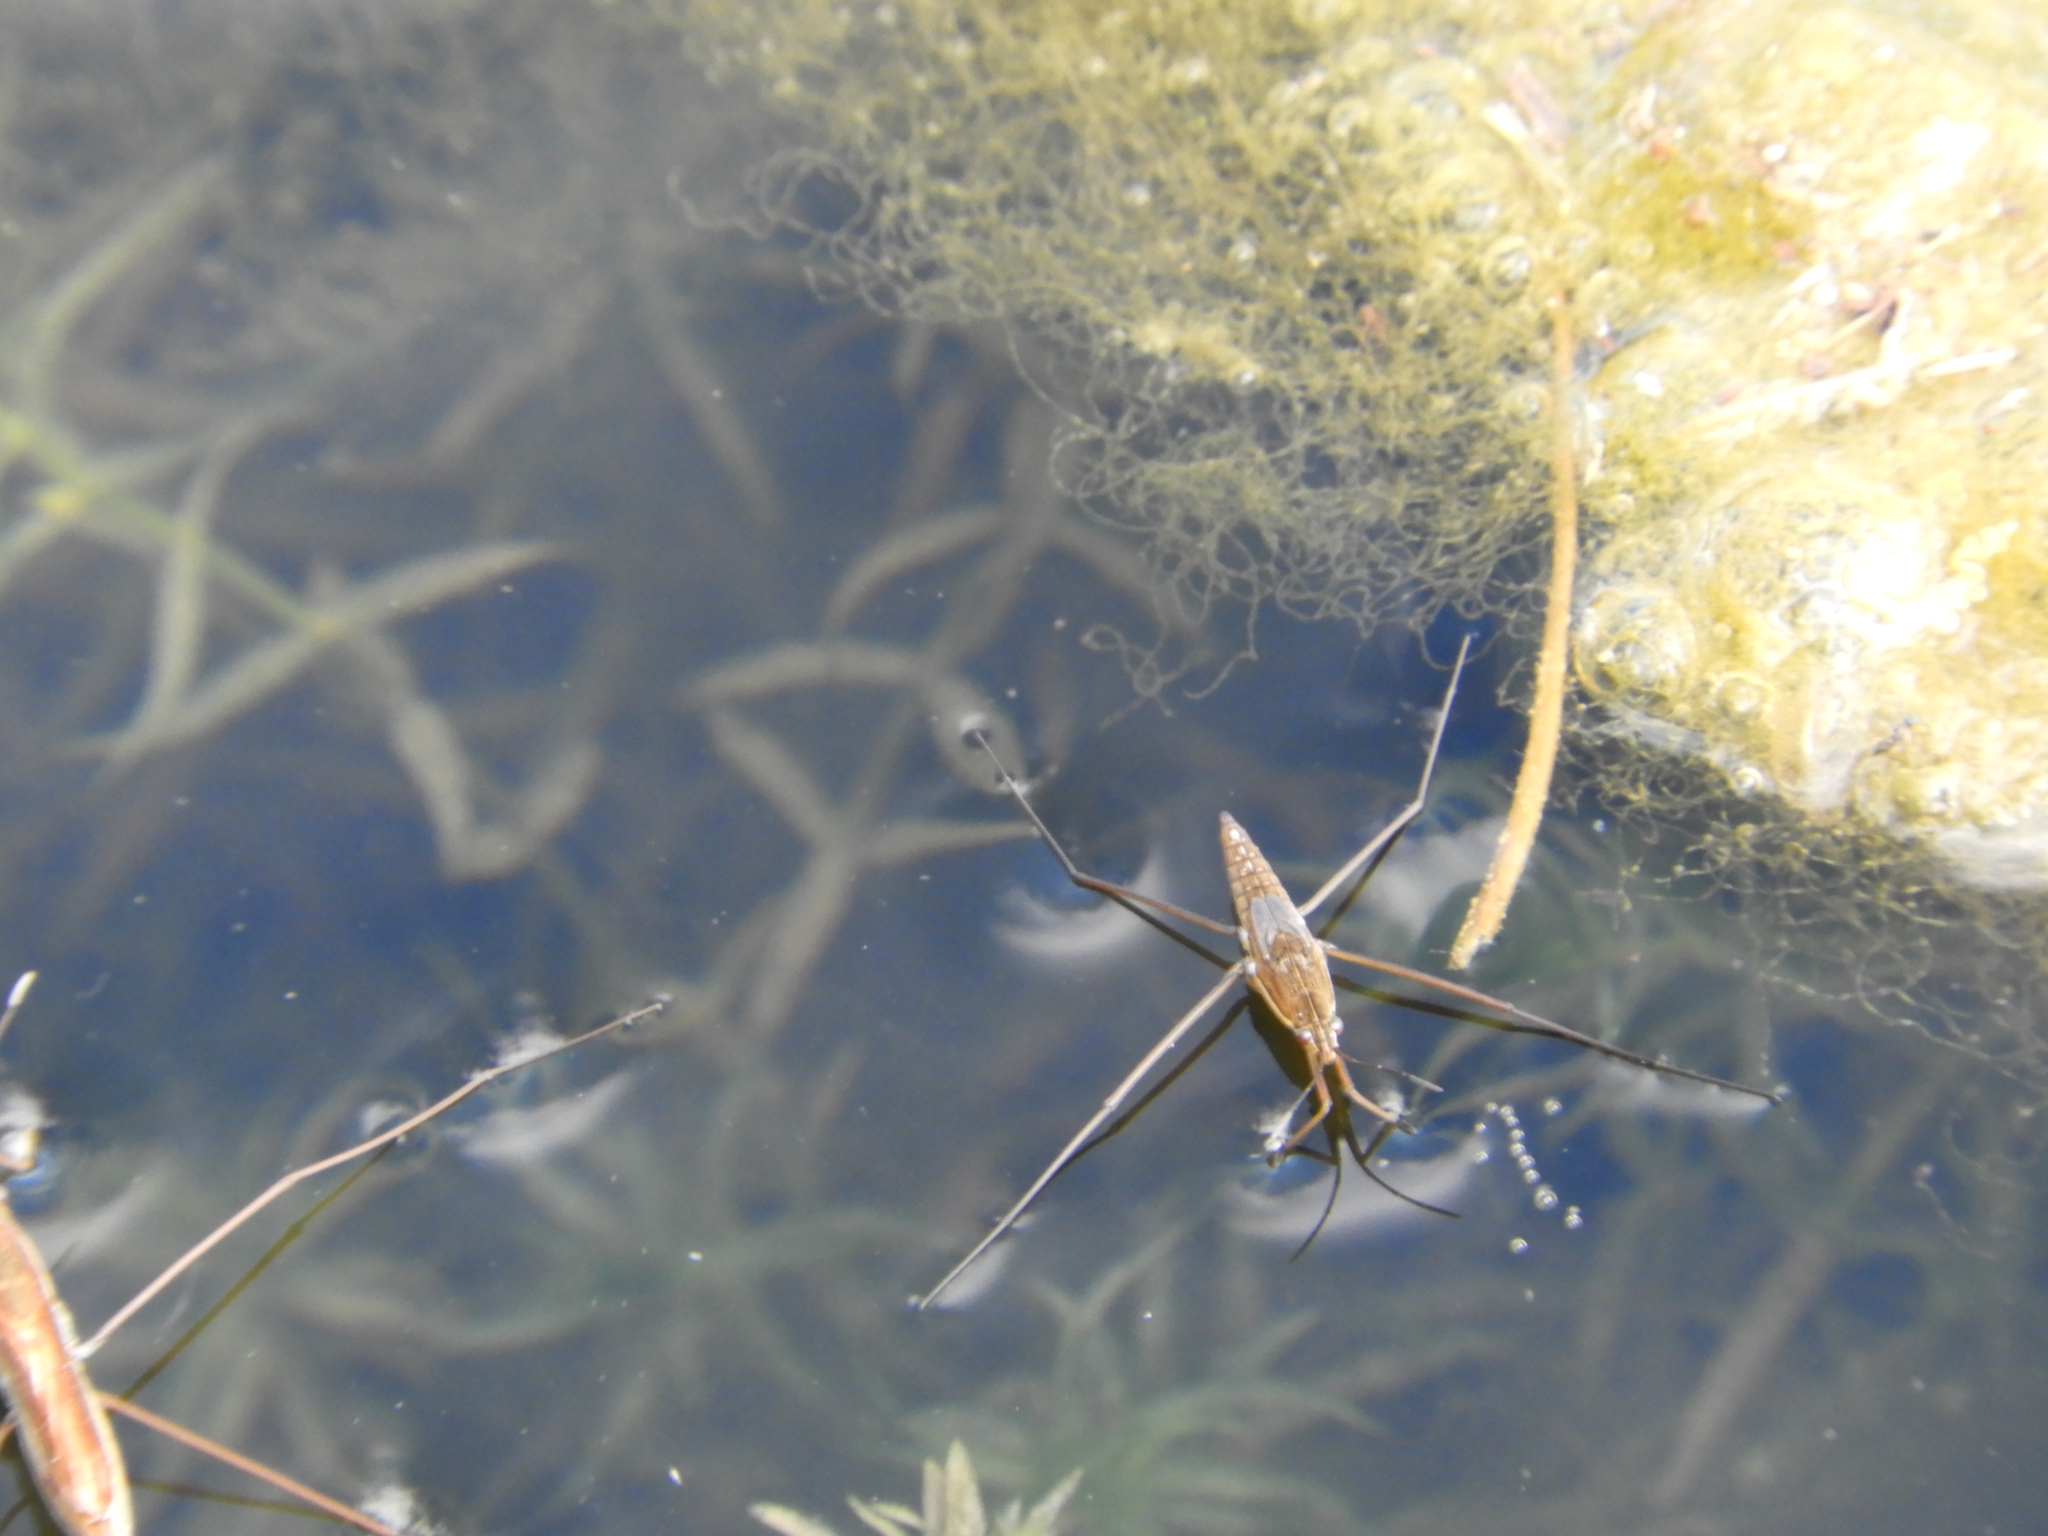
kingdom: Animalia
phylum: Arthropoda
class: Insecta
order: Hemiptera
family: Gerridae
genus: Limnoporus
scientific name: Limnoporus notabilis
